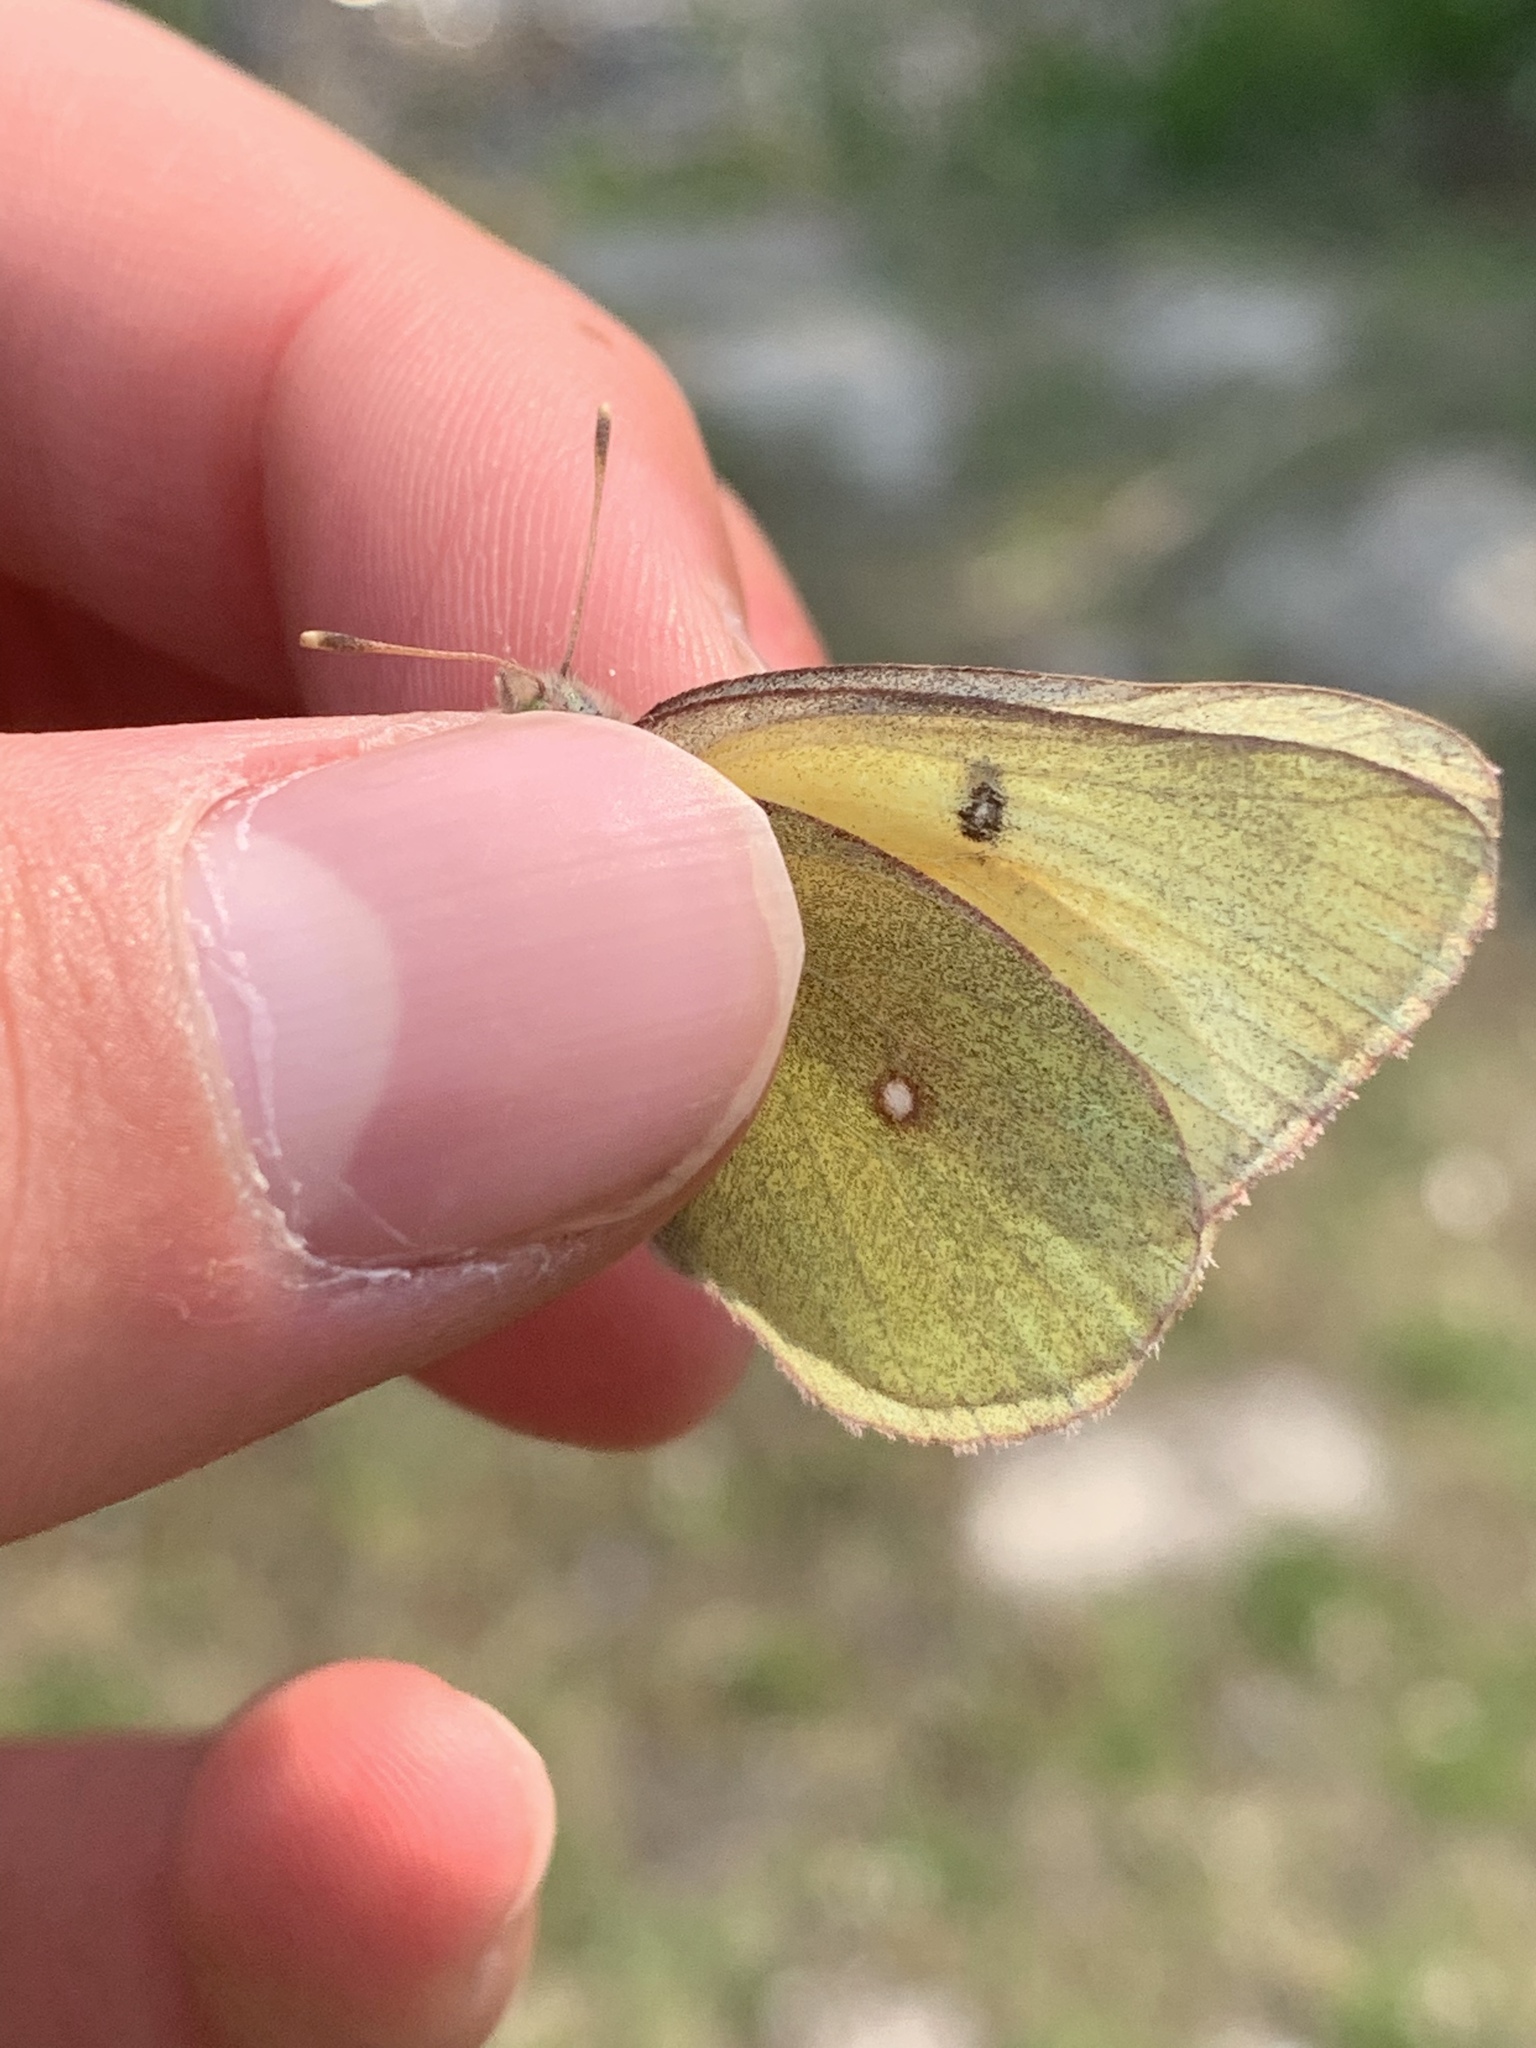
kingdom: Animalia
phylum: Arthropoda
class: Insecta
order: Lepidoptera
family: Pieridae
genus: Colias
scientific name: Colias christina
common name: Christina sulphur
